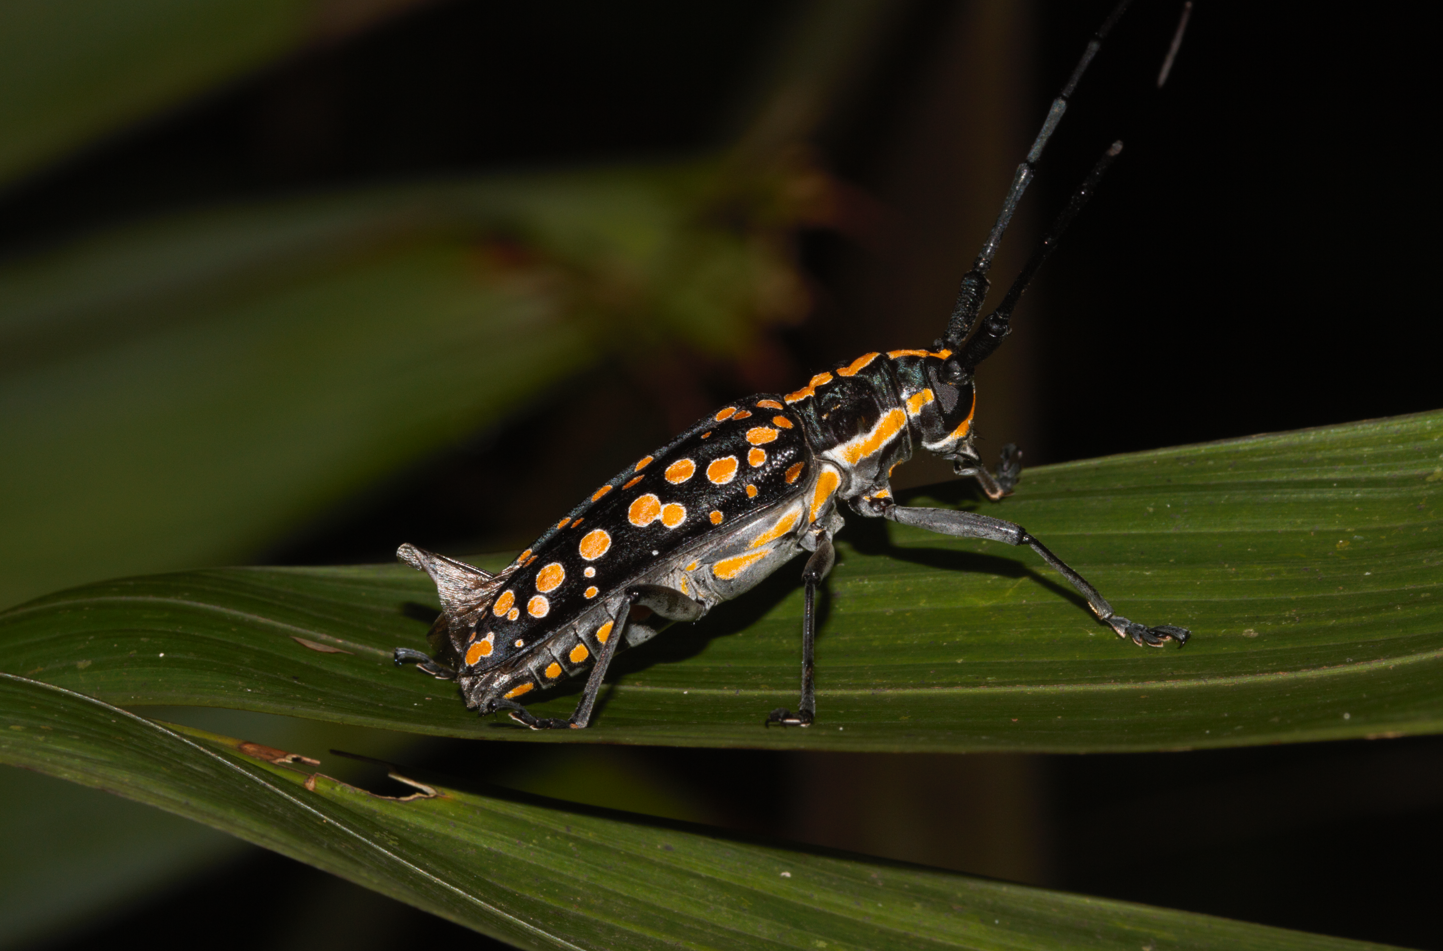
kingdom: Animalia
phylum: Arthropoda
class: Insecta
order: Coleoptera
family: Cerambycidae
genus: Taeniotes
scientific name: Taeniotes farinosus
